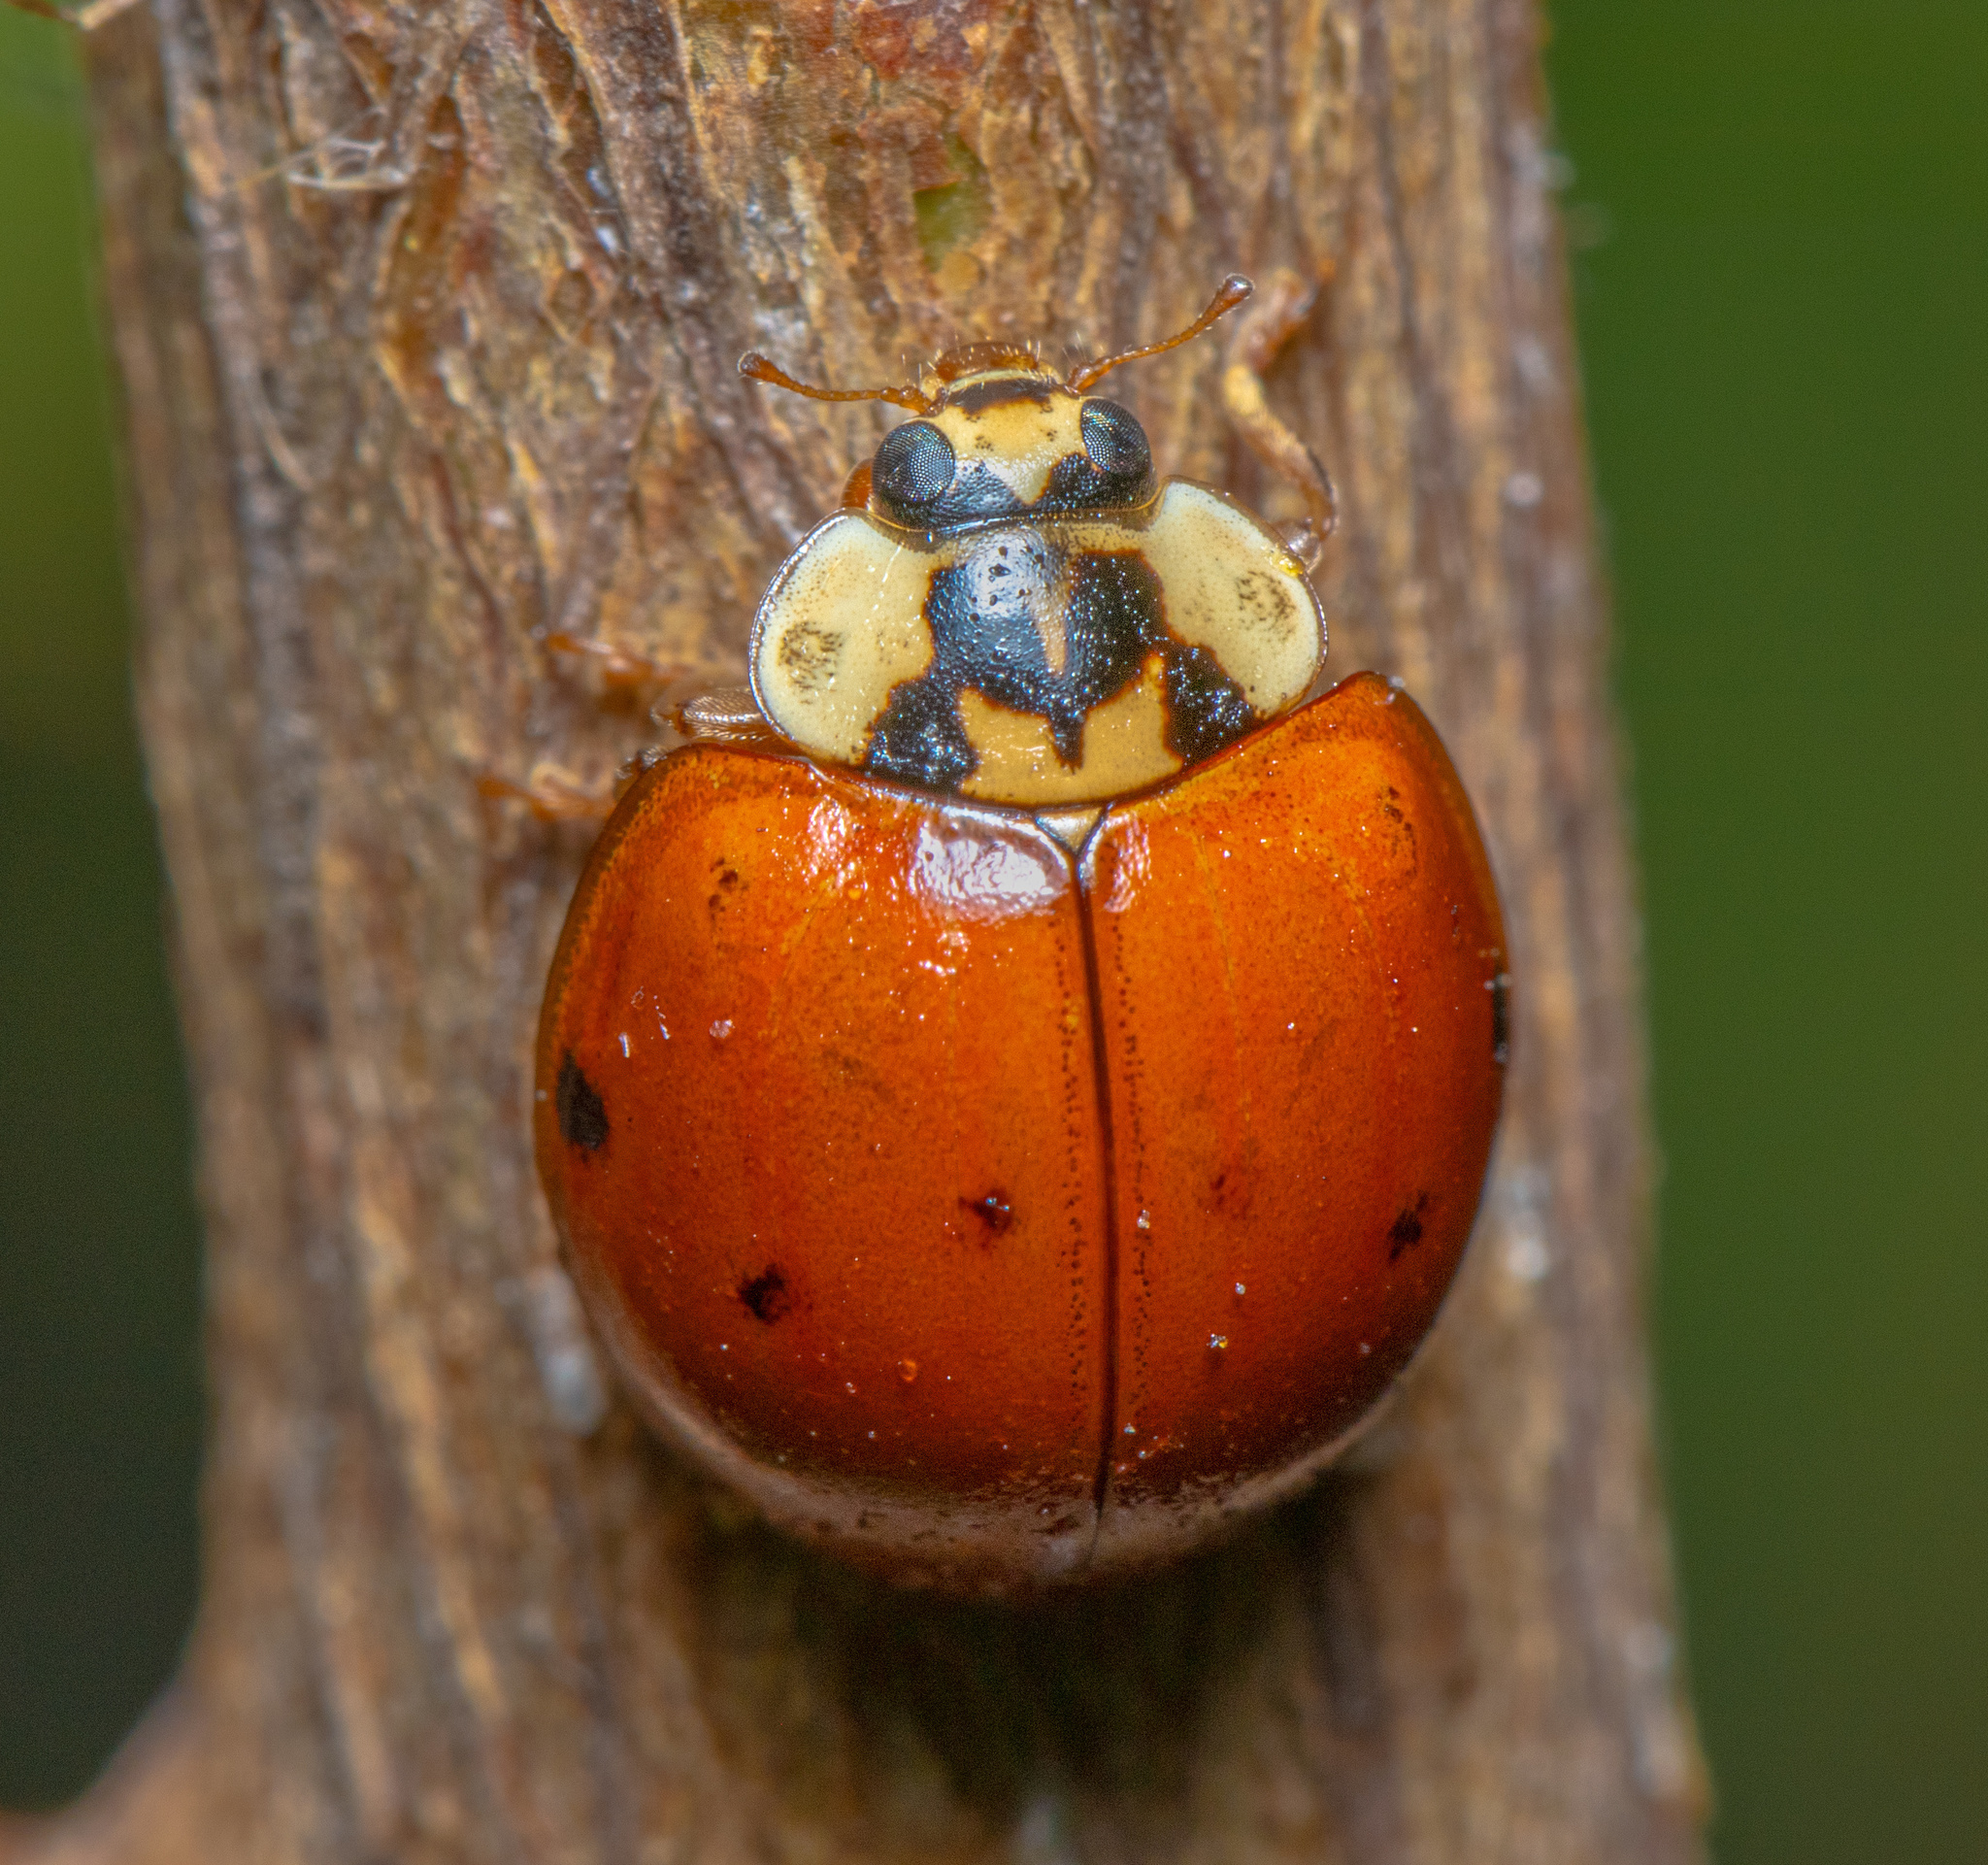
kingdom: Animalia
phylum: Arthropoda
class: Insecta
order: Coleoptera
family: Coccinellidae
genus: Harmonia
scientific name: Harmonia axyridis
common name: Harlequin ladybird
